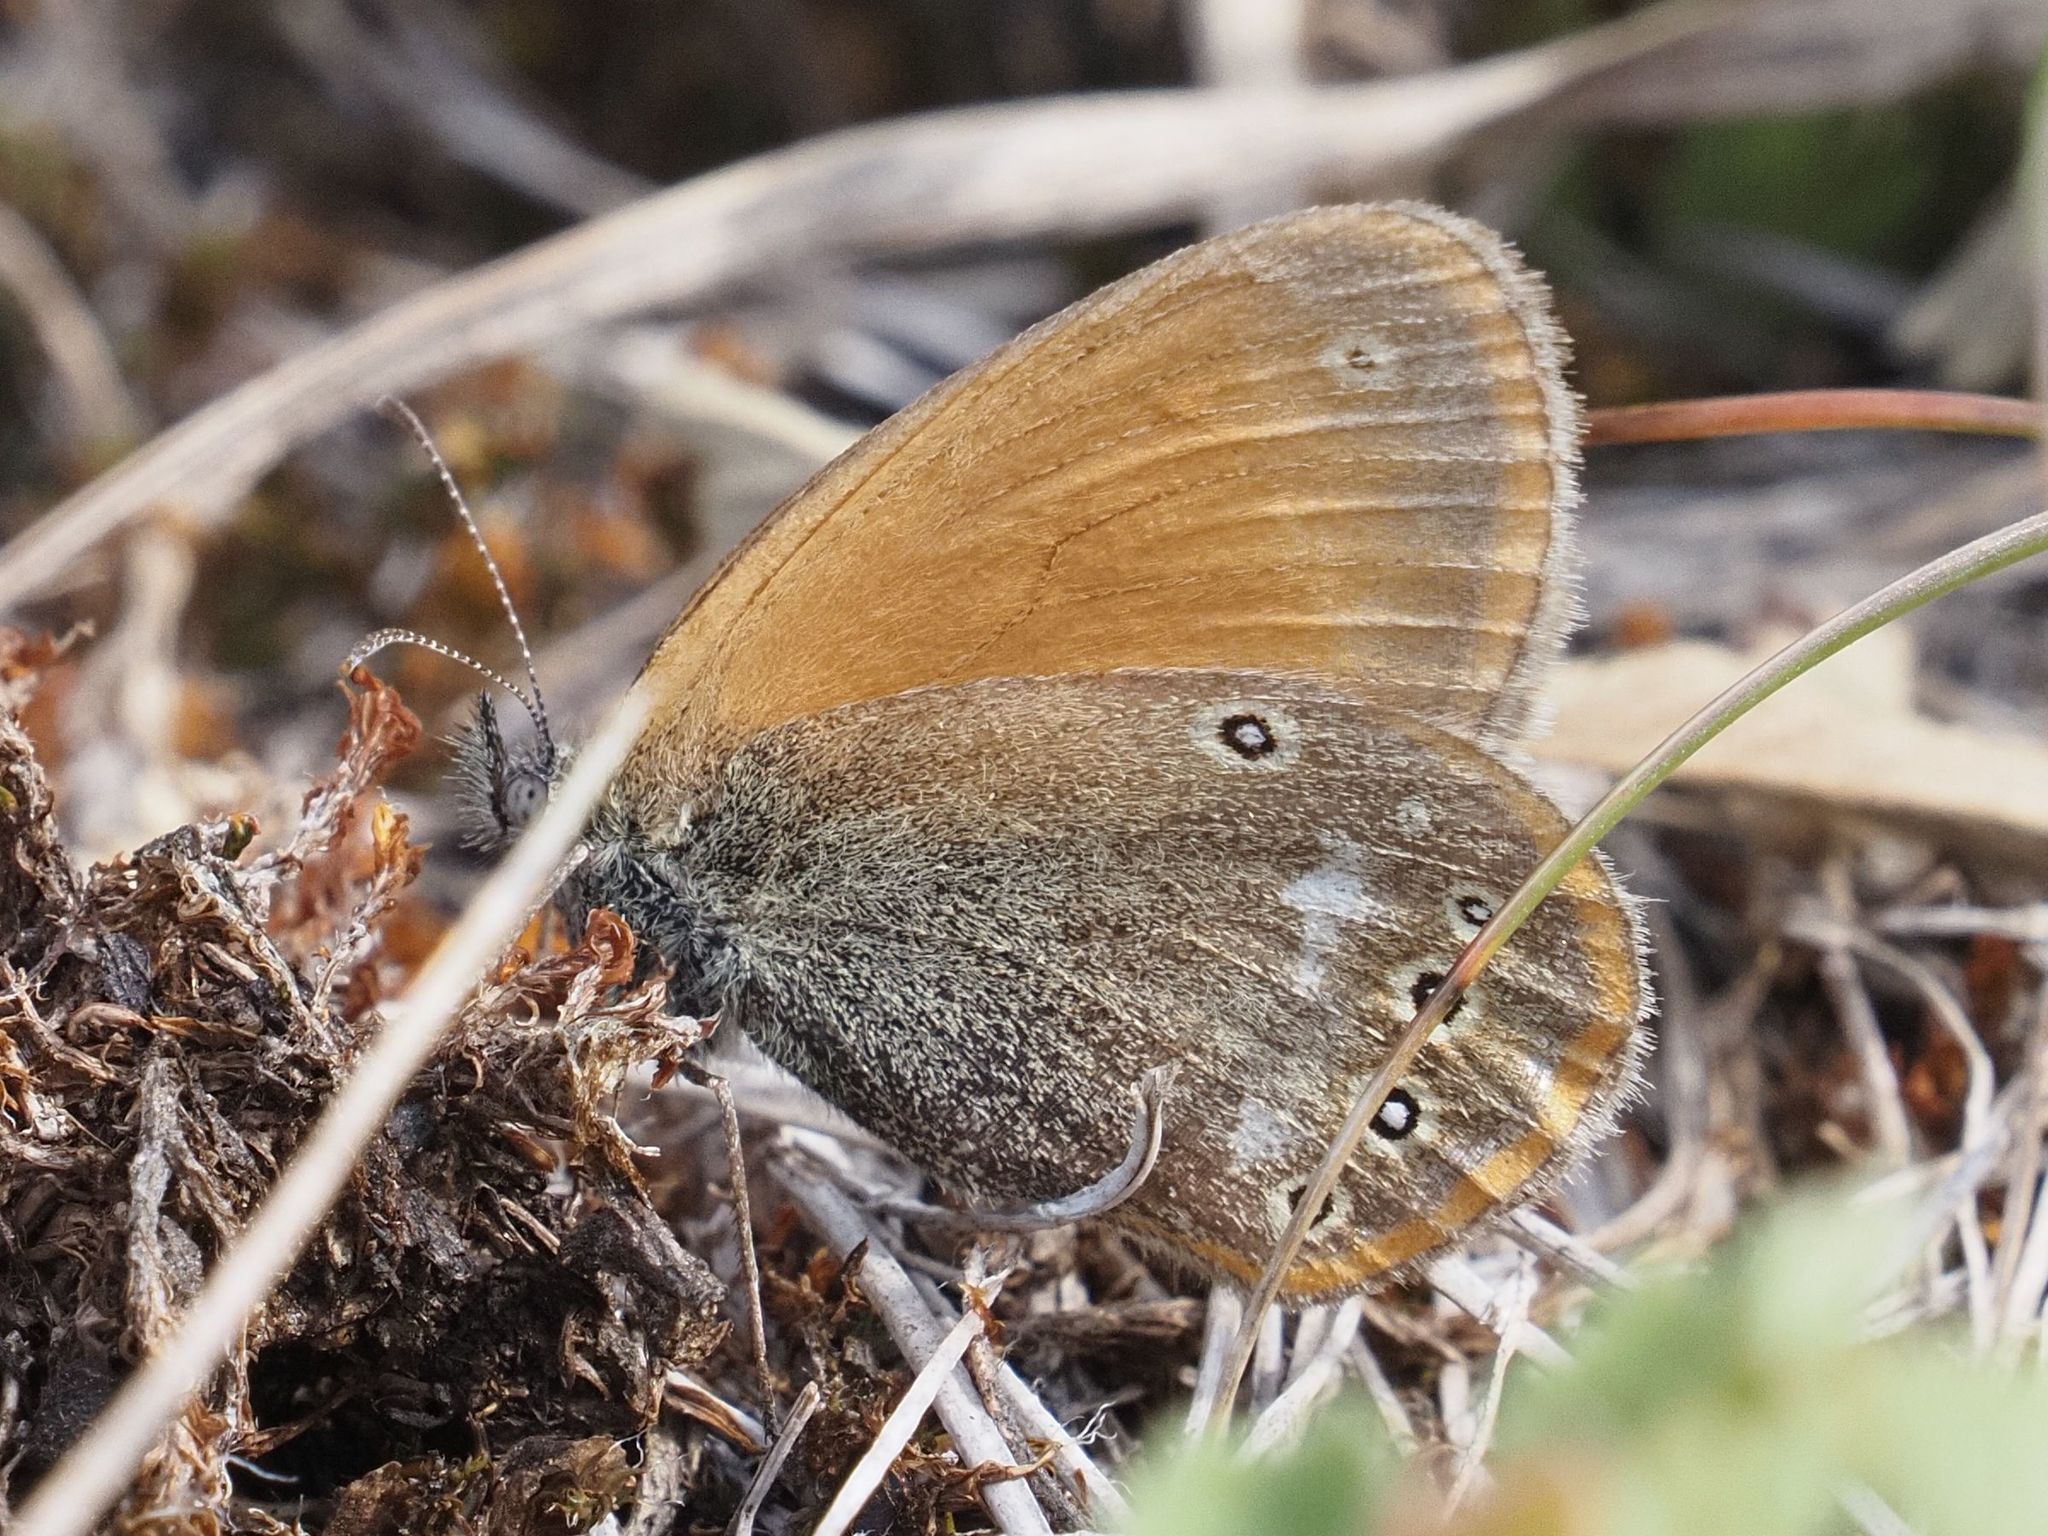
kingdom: Animalia
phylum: Arthropoda
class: Insecta
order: Lepidoptera
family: Nymphalidae
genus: Coenonympha
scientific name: Coenonympha iphis
